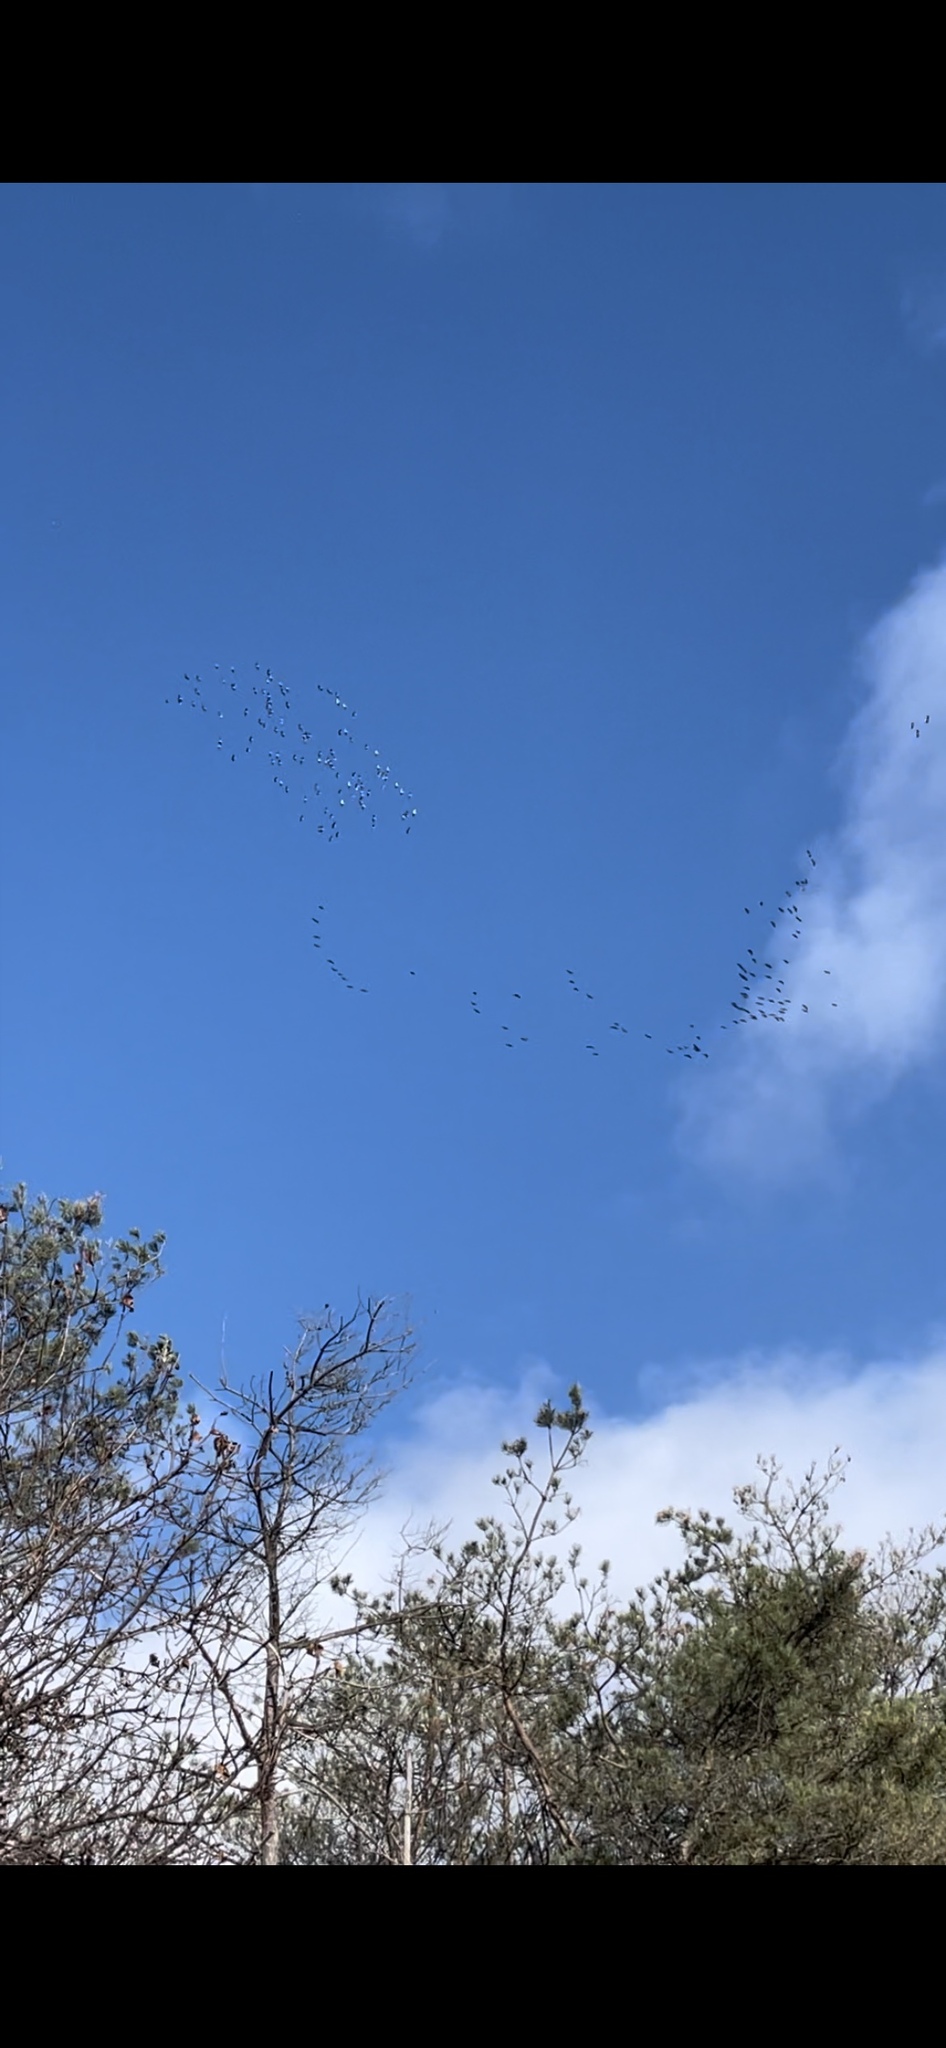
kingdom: Animalia
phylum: Chordata
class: Aves
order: Gruiformes
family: Gruidae
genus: Grus
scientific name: Grus canadensis
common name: Sandhill crane
